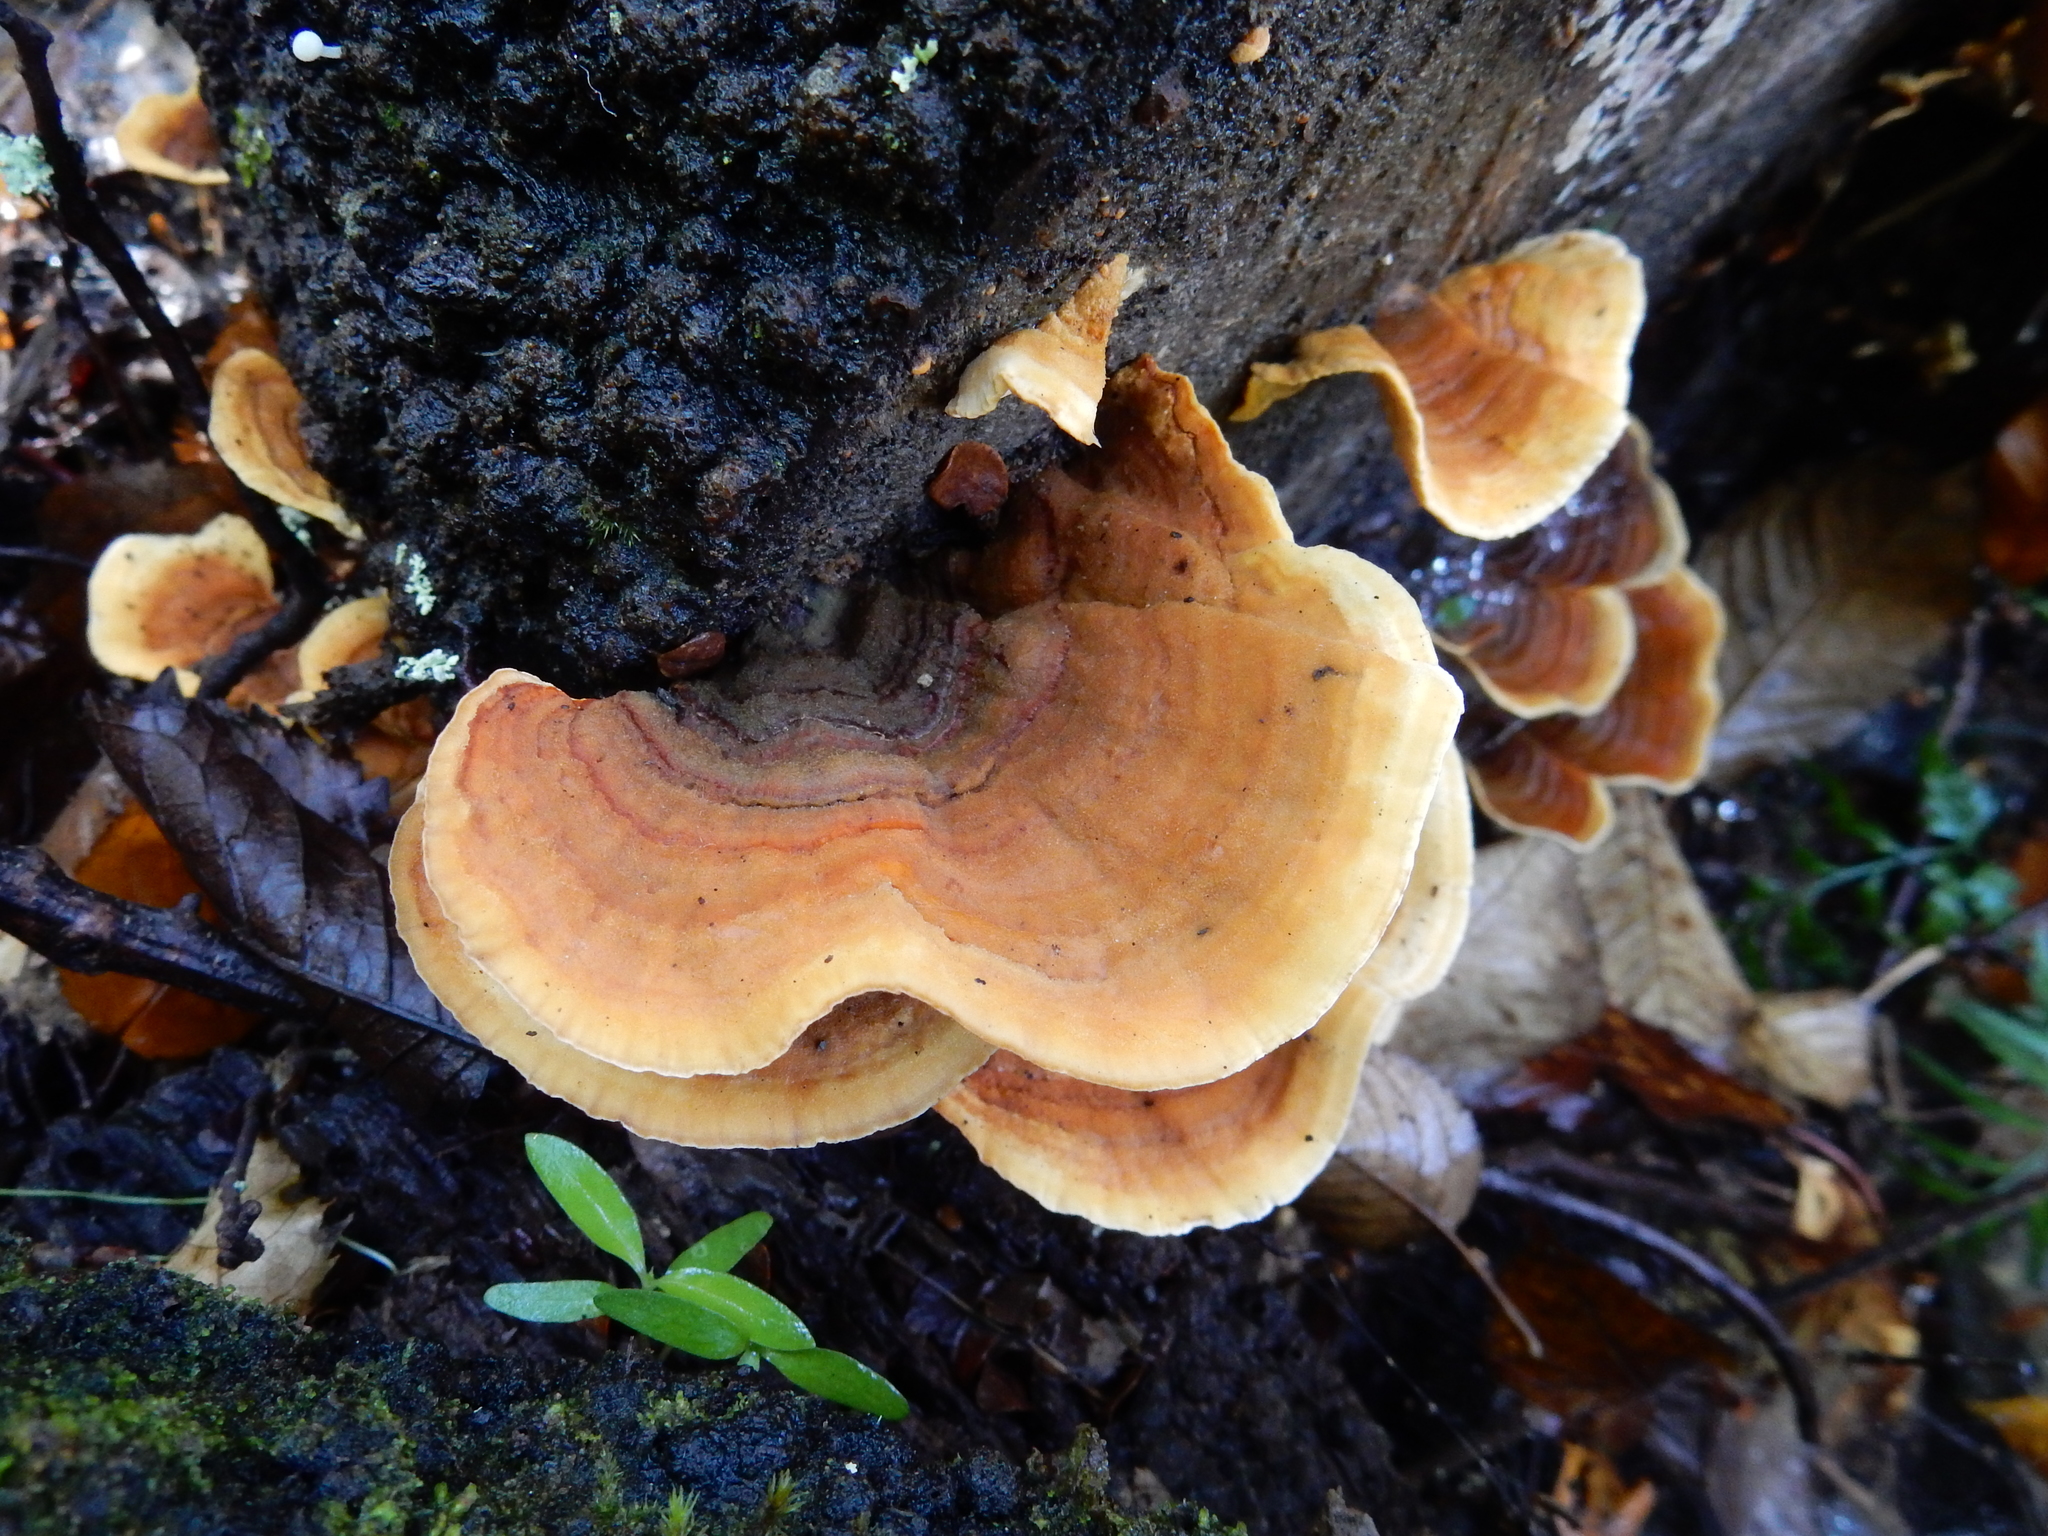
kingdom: Fungi
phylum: Basidiomycota
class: Agaricomycetes
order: Russulales
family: Stereaceae
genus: Stereum
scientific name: Stereum versicolor
